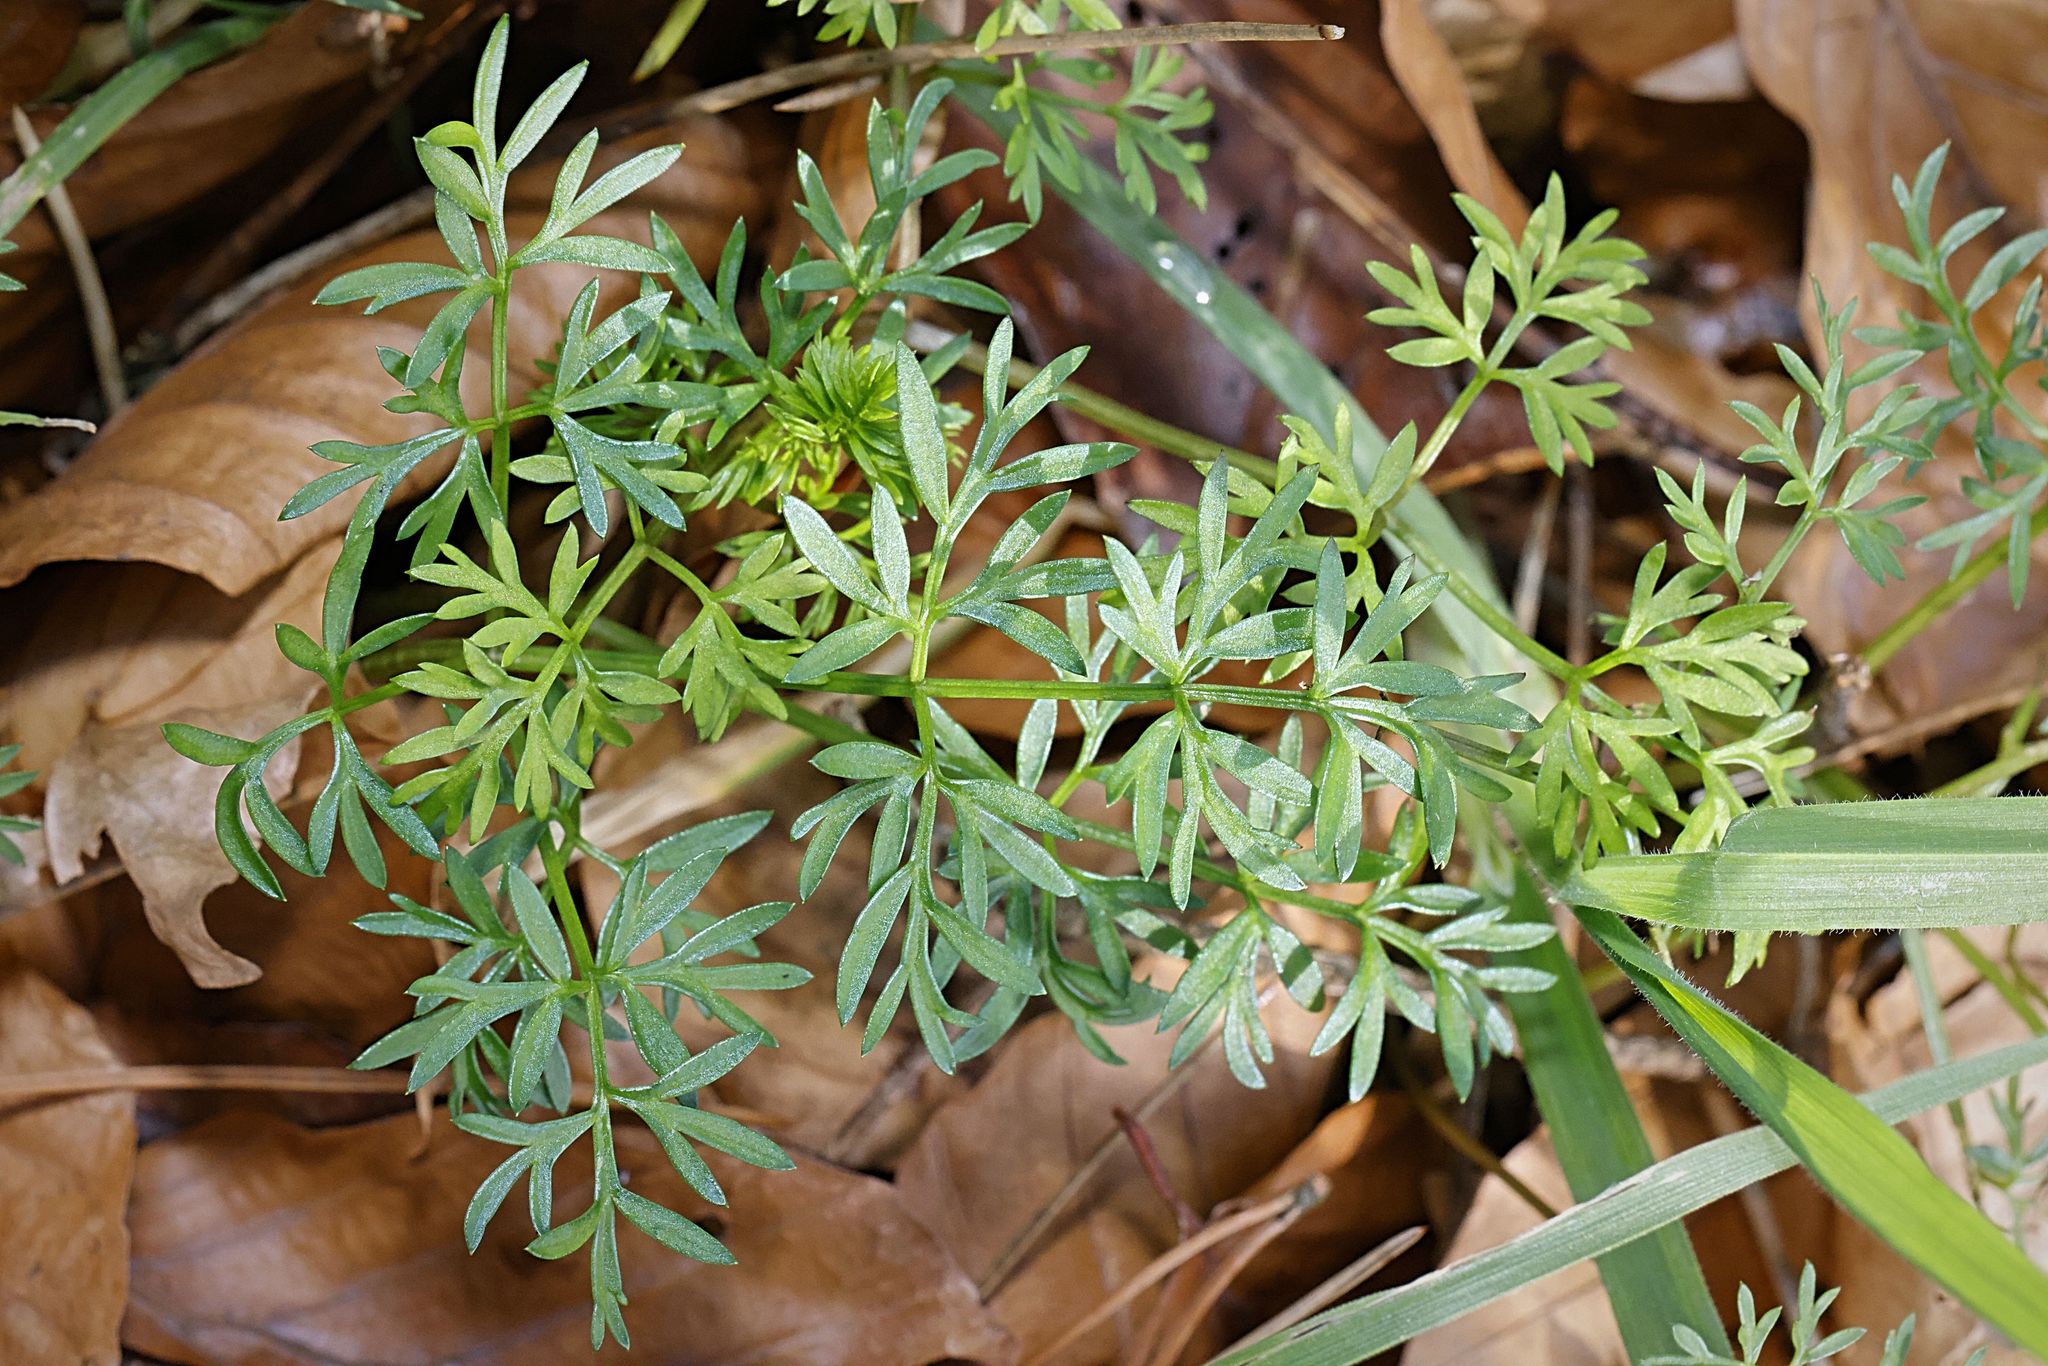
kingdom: Plantae
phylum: Tracheophyta
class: Magnoliopsida
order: Apiales
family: Apiaceae
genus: Conopodium
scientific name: Conopodium majus
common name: Pignut
